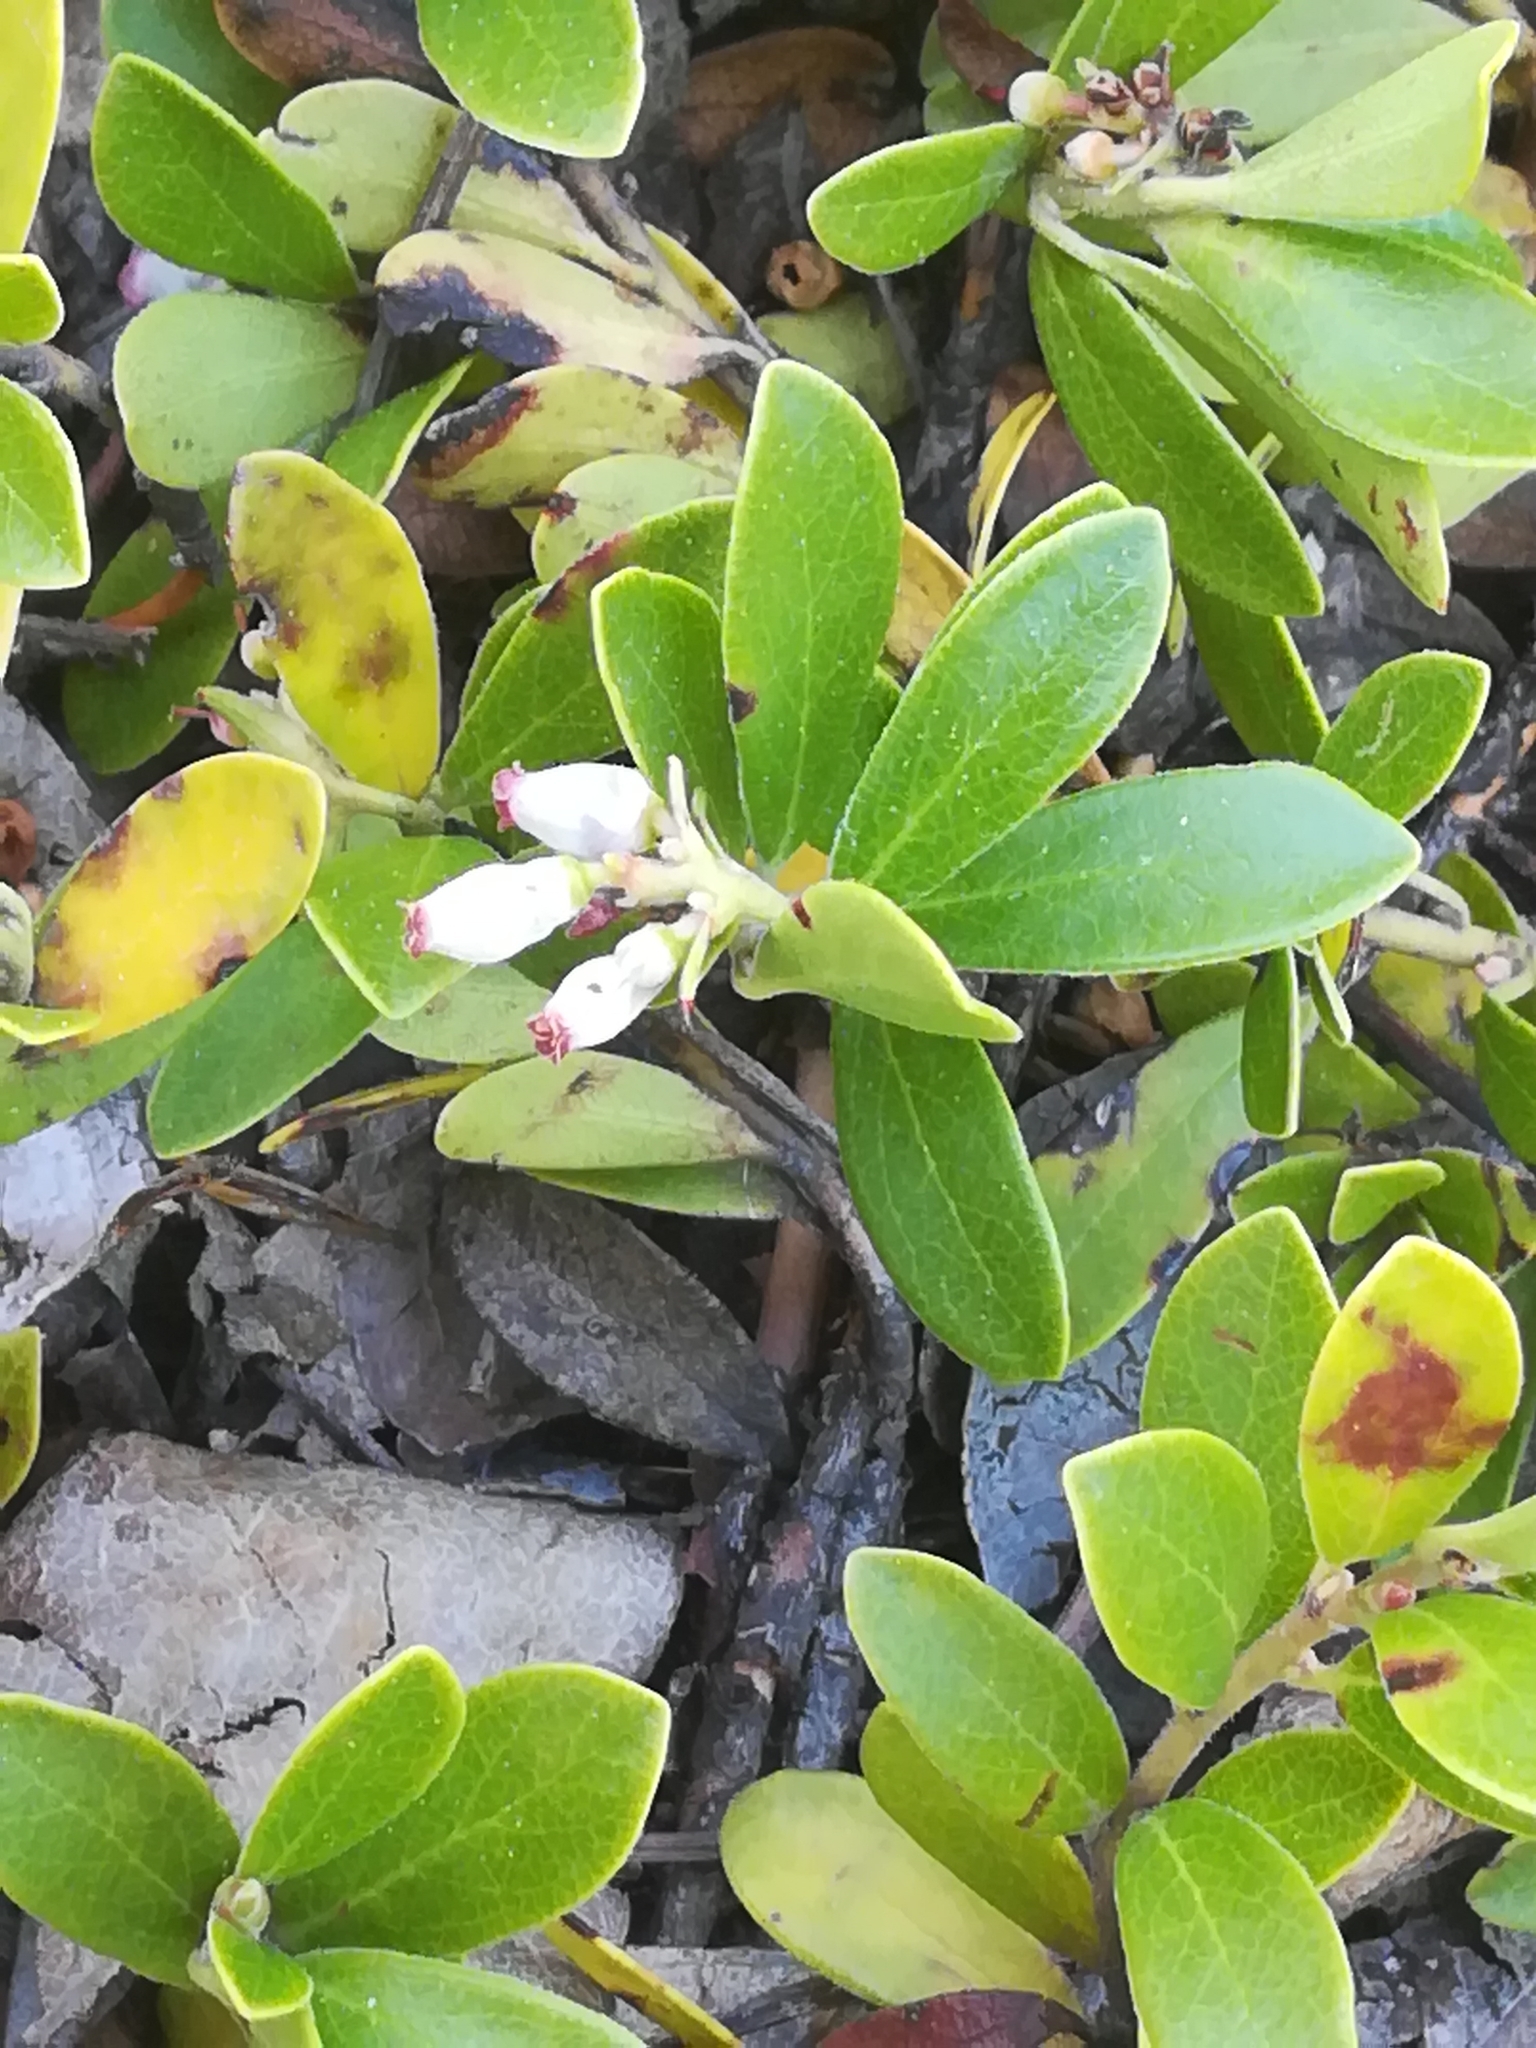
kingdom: Plantae
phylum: Tracheophyta
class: Magnoliopsida
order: Ericales
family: Ericaceae
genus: Arctostaphylos
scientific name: Arctostaphylos uva-ursi
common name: Bearberry
